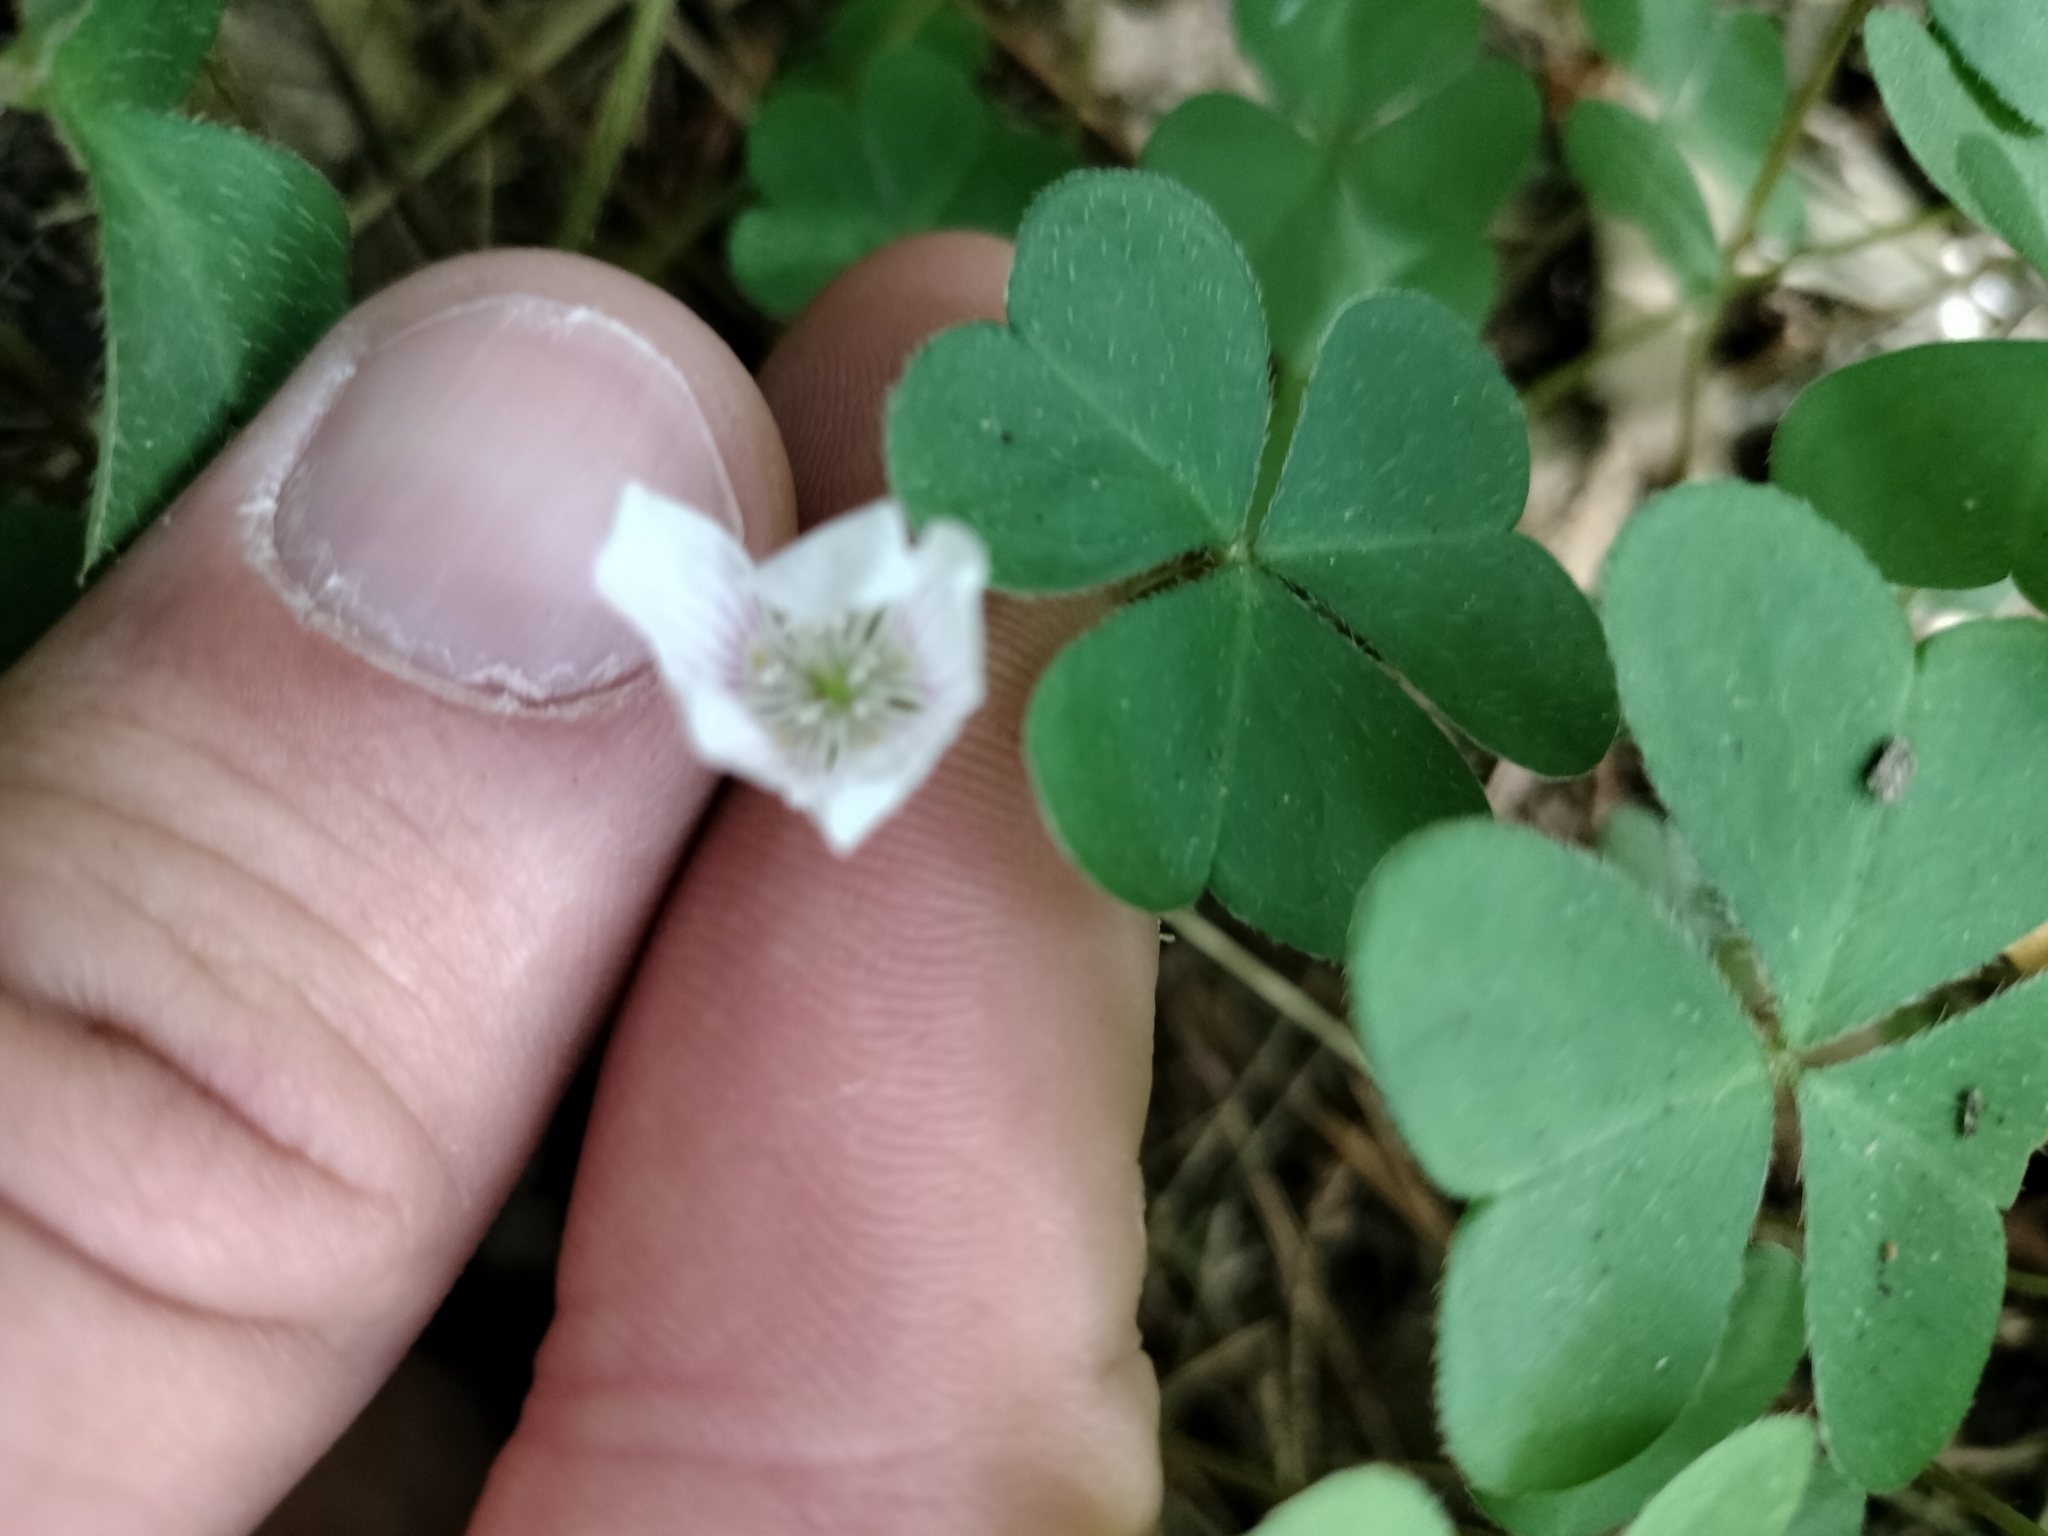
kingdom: Plantae
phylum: Tracheophyta
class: Magnoliopsida
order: Oxalidales
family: Oxalidaceae
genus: Oxalis
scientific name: Oxalis montana
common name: American wood-sorrel
